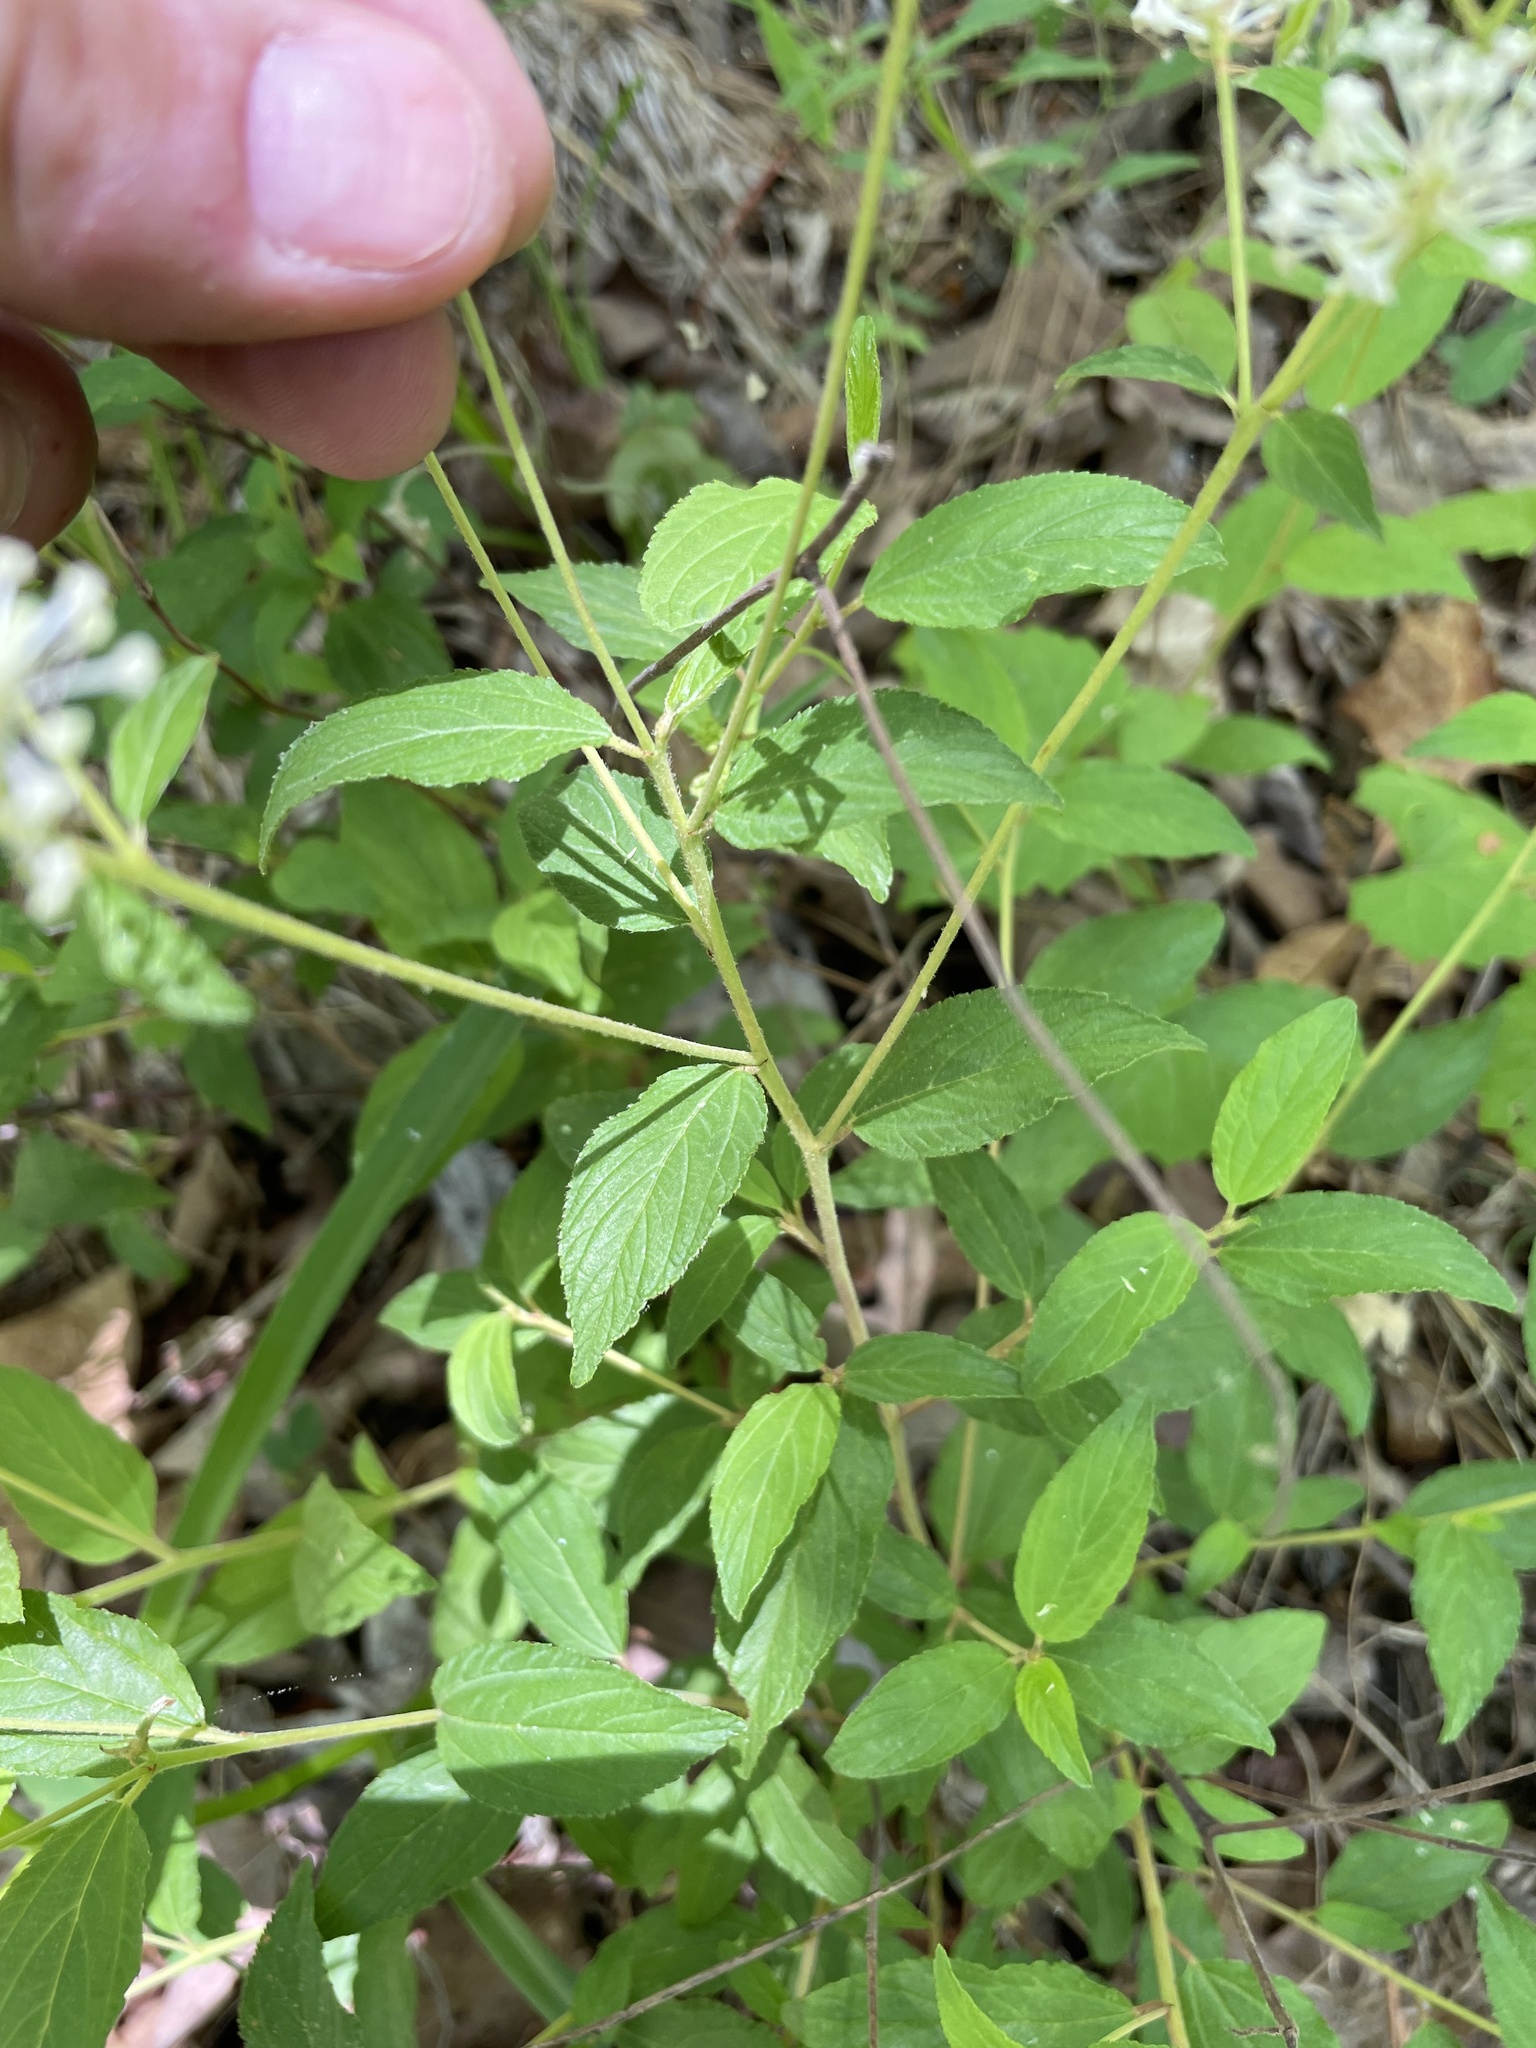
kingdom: Plantae
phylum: Tracheophyta
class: Magnoliopsida
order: Rosales
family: Rhamnaceae
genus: Ceanothus
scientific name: Ceanothus americanus
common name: Redroot
